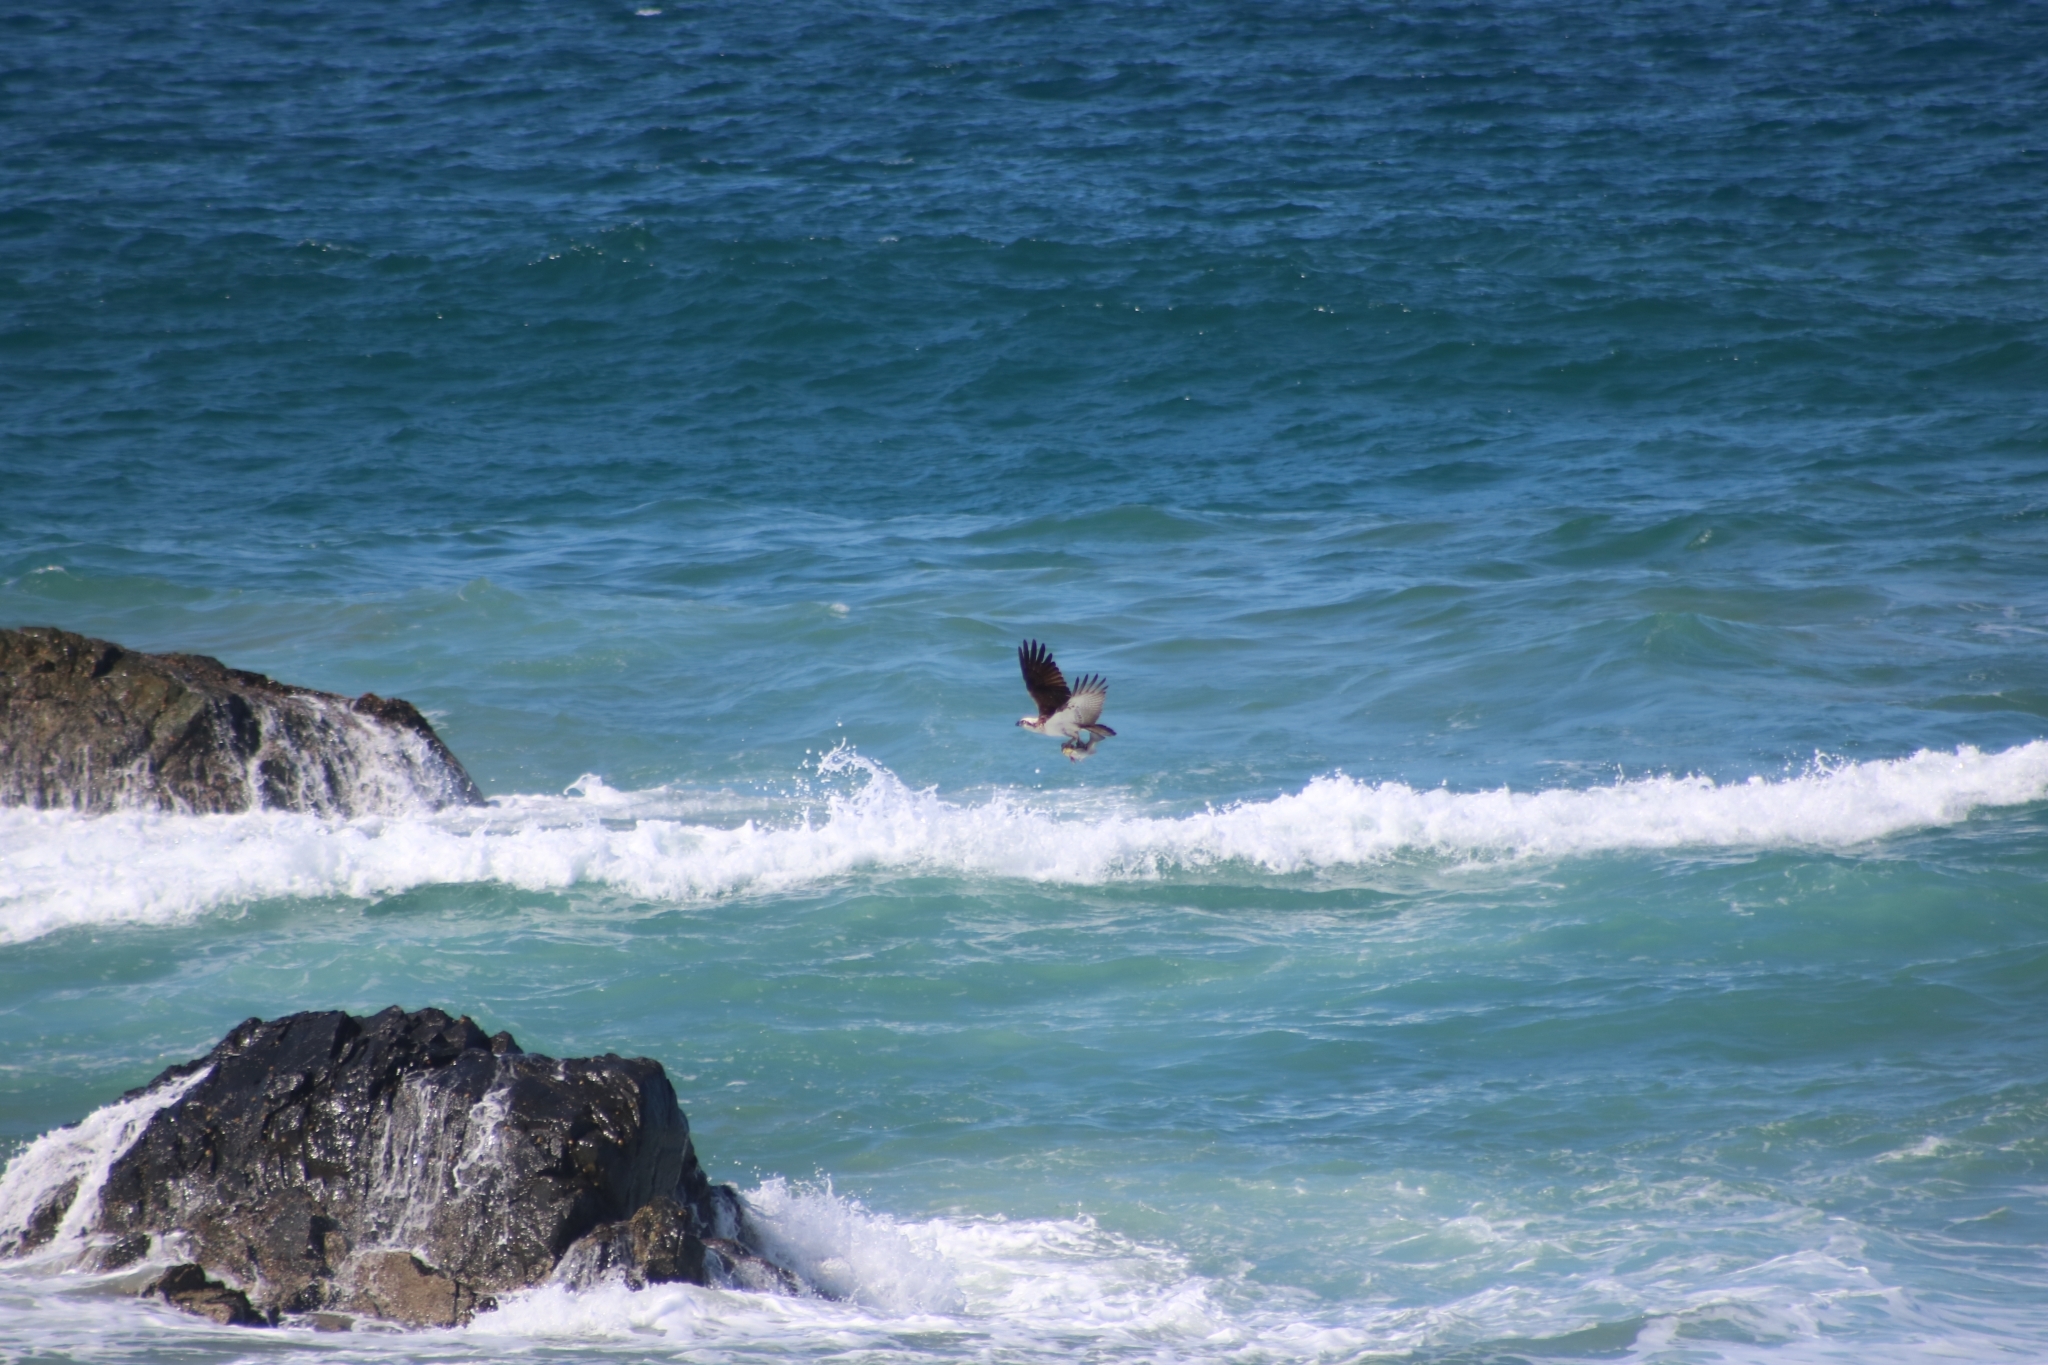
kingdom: Animalia
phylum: Chordata
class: Aves
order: Accipitriformes
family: Pandionidae
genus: Pandion
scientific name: Pandion cristatus
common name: Eastern osprey
